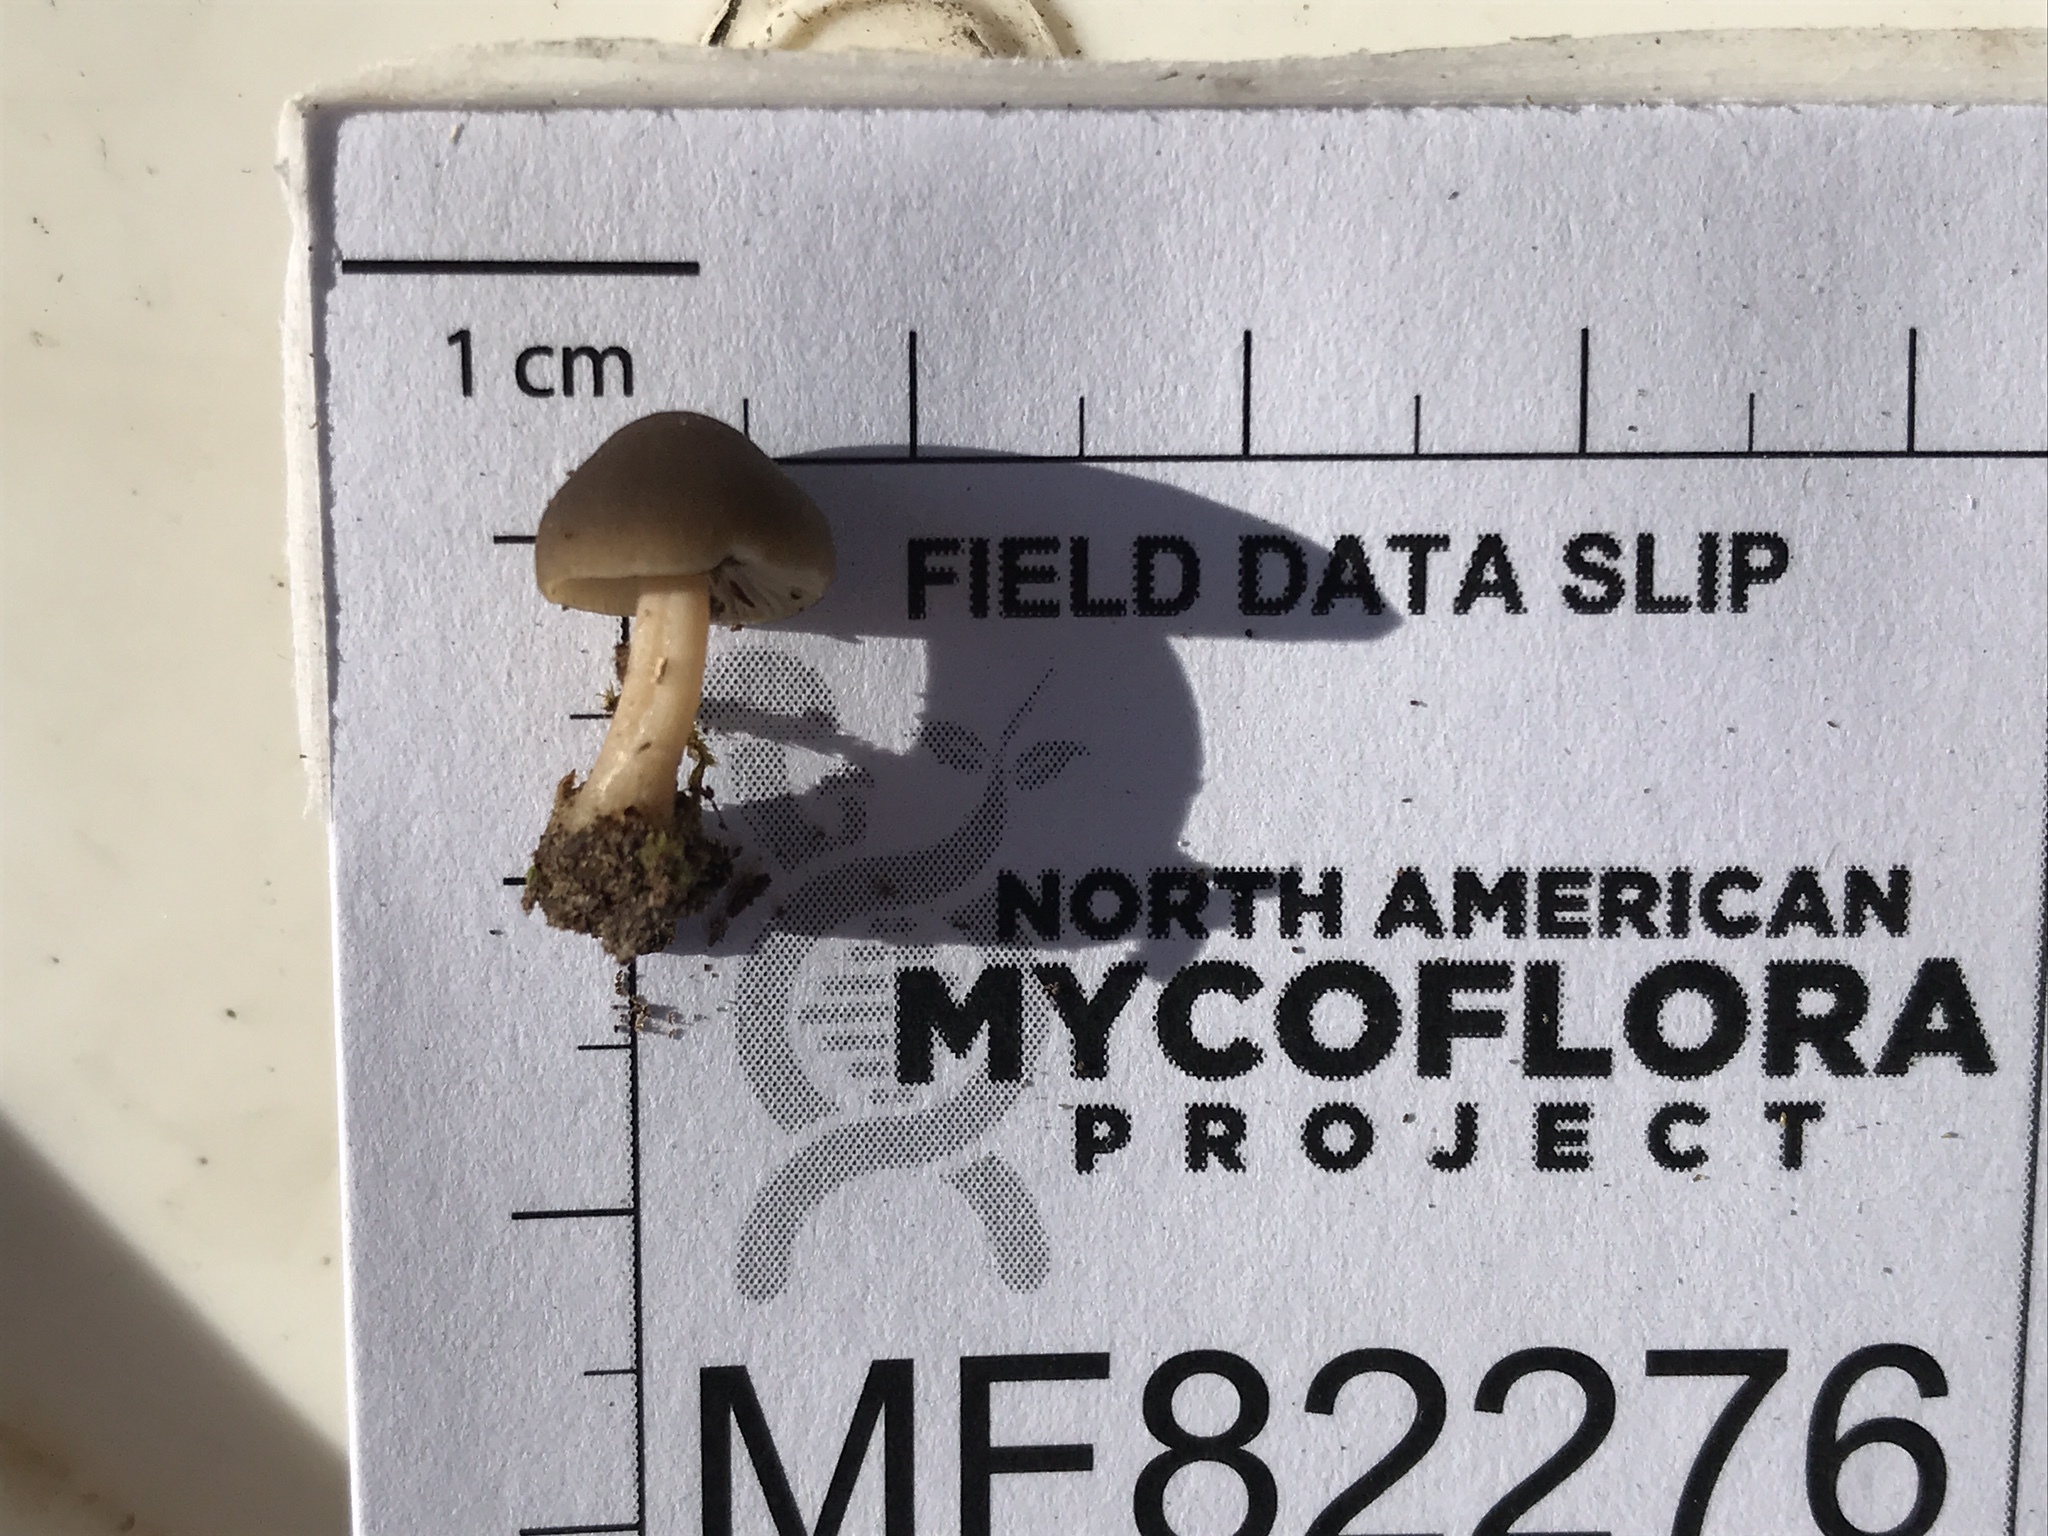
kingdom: Fungi
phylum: Basidiomycota
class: Agaricomycetes
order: Agaricales
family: Mycenaceae
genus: Mycena
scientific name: Mycena galericulata
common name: Bonnet mycena
